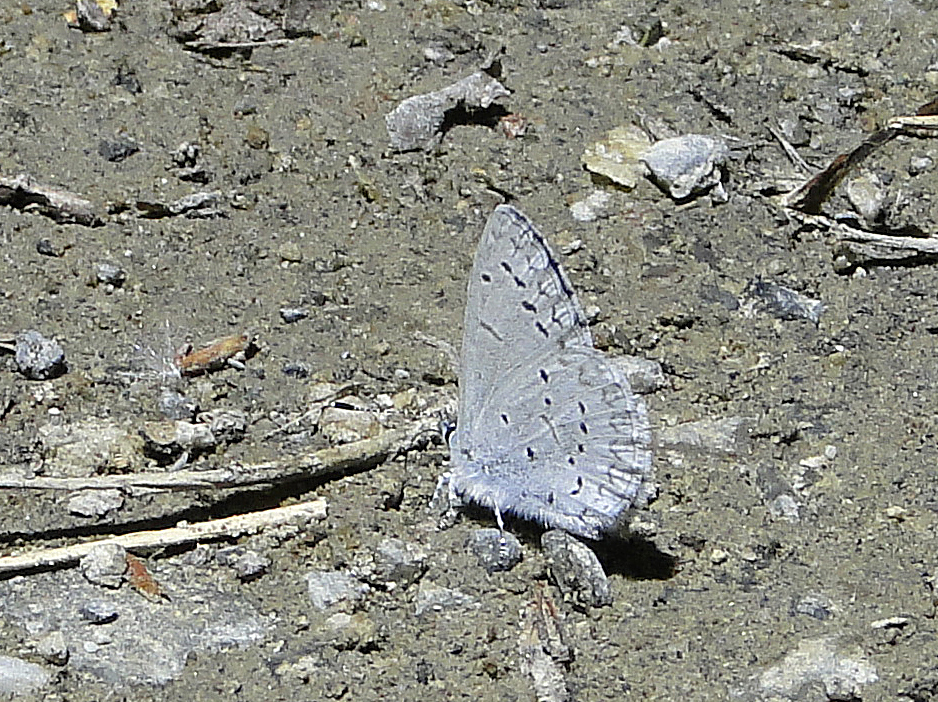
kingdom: Animalia
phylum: Arthropoda
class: Insecta
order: Lepidoptera
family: Lycaenidae
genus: Celastrina
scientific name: Celastrina ladon
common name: Spring azure
